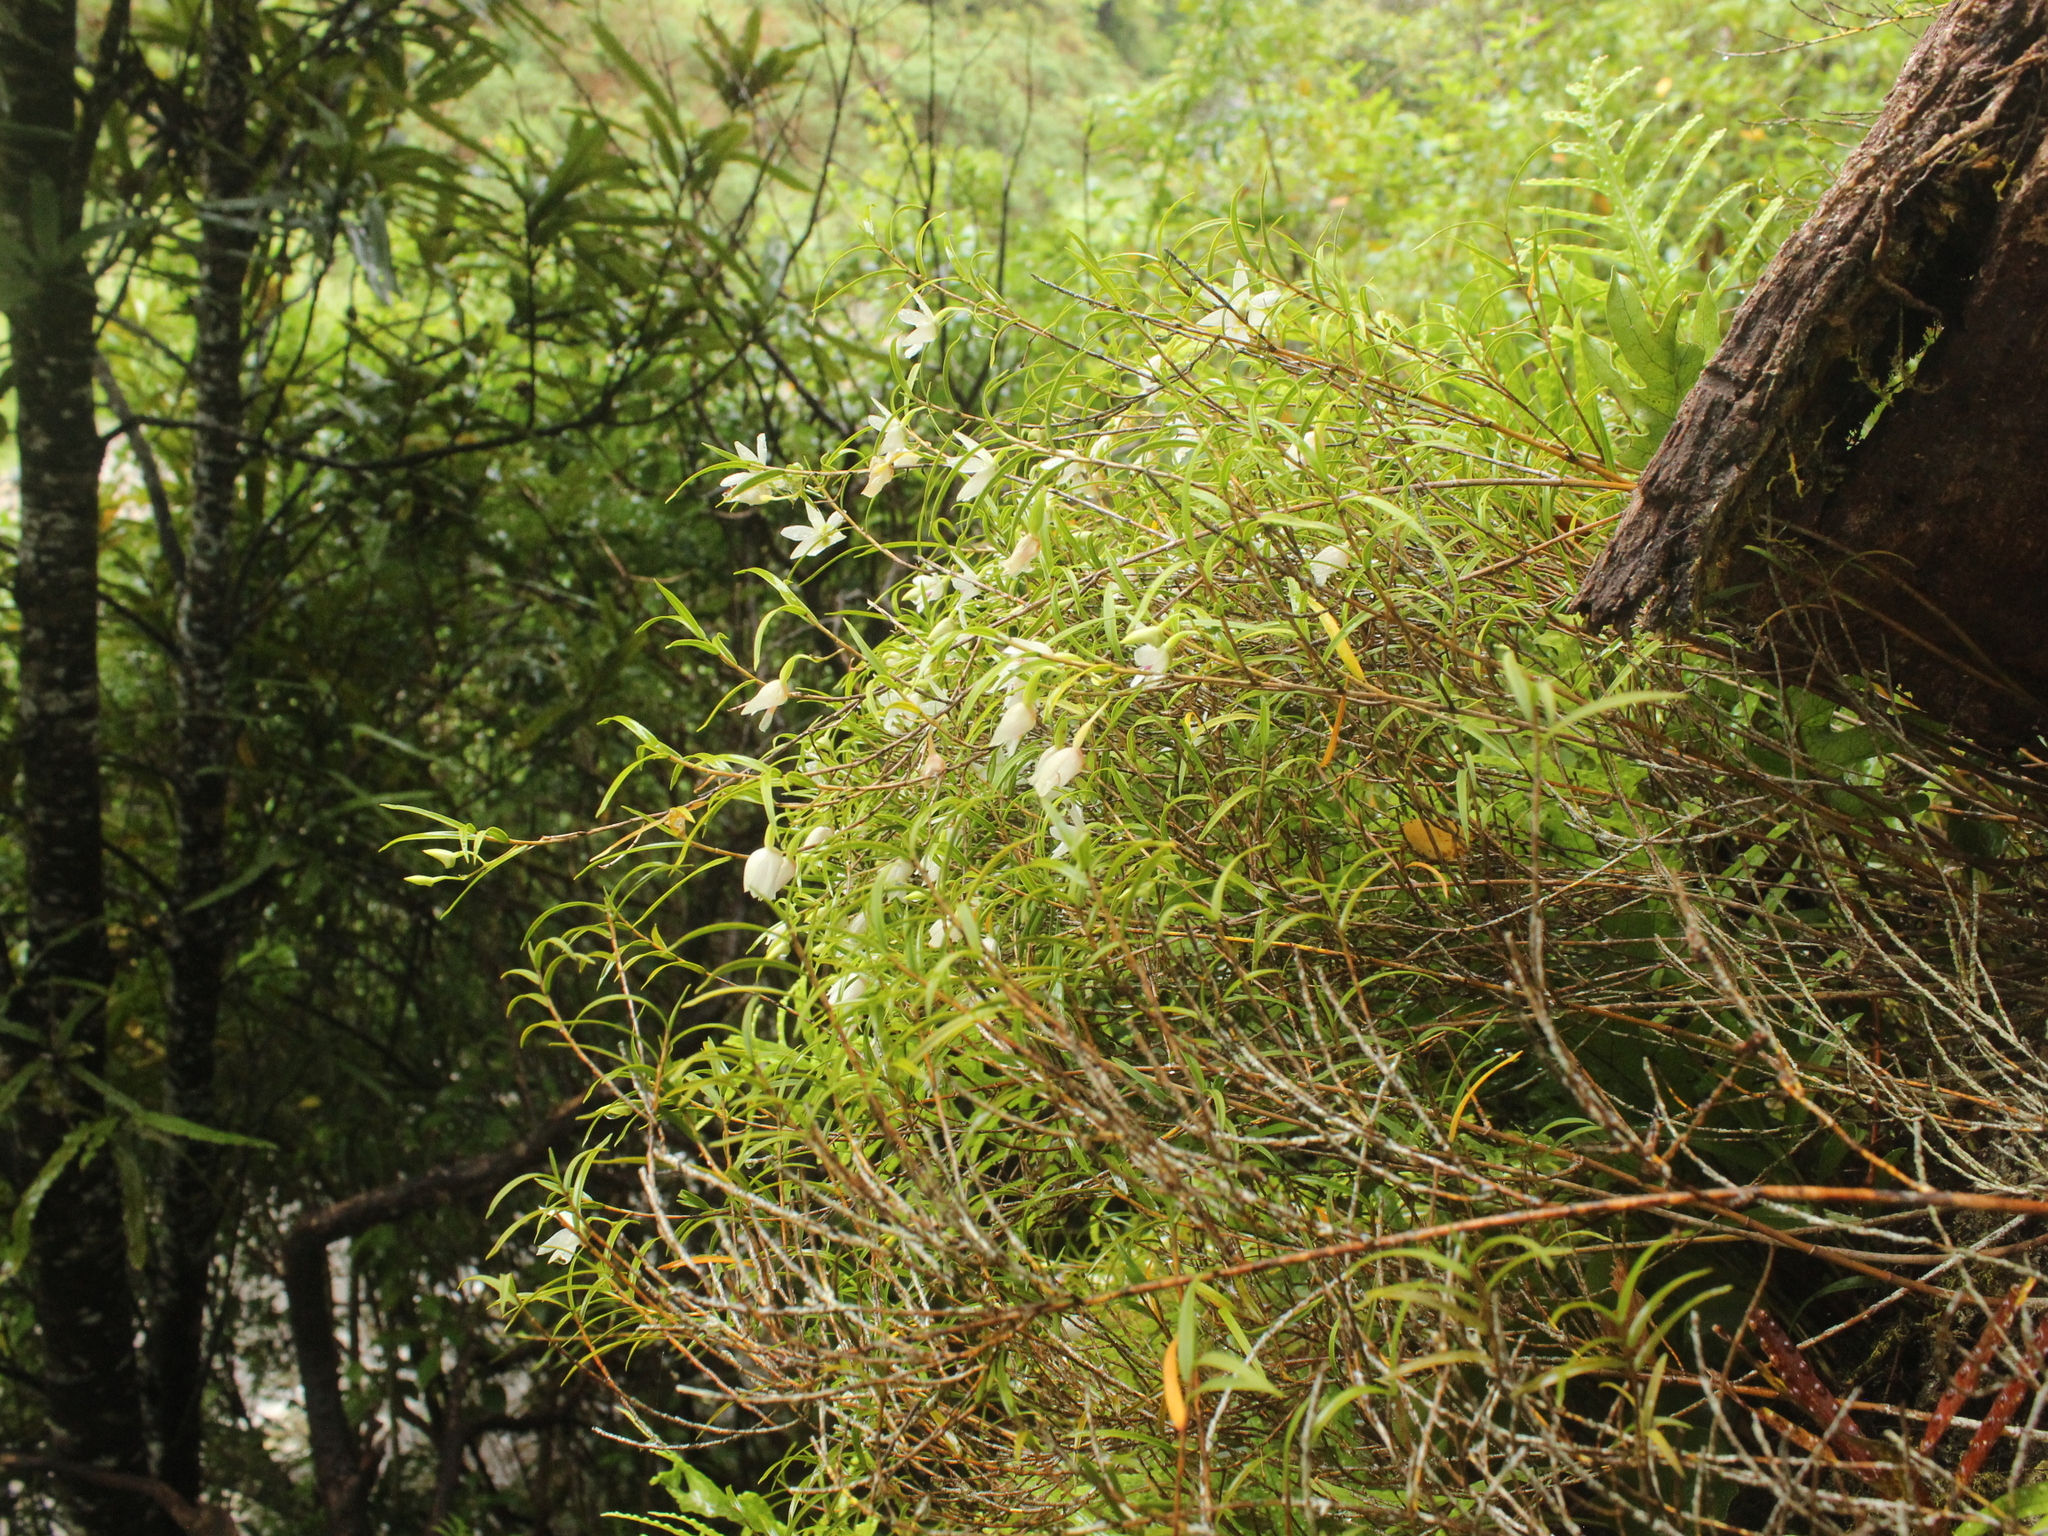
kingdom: Plantae
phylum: Tracheophyta
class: Liliopsida
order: Asparagales
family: Orchidaceae
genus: Dendrobium
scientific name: Dendrobium cunninghamii
